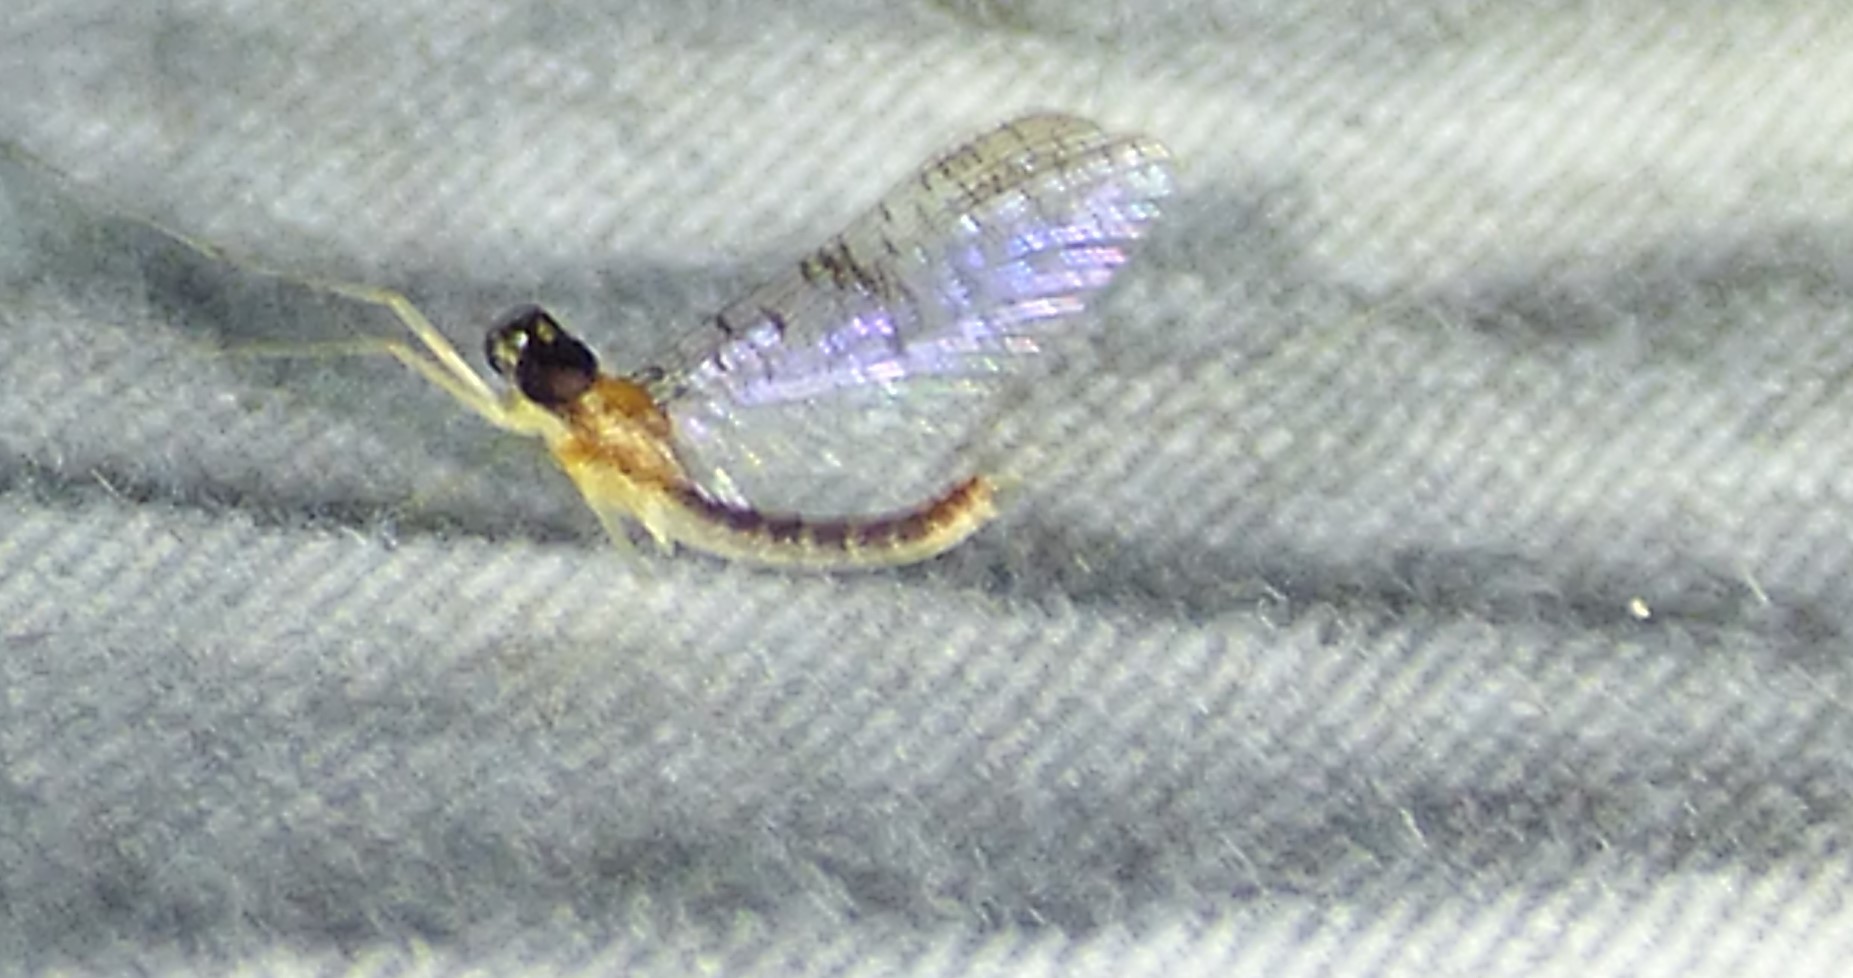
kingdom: Animalia
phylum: Arthropoda
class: Insecta
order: Ephemeroptera
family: Heptageniidae
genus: Leucrocuta
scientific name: Leucrocuta umbratica
